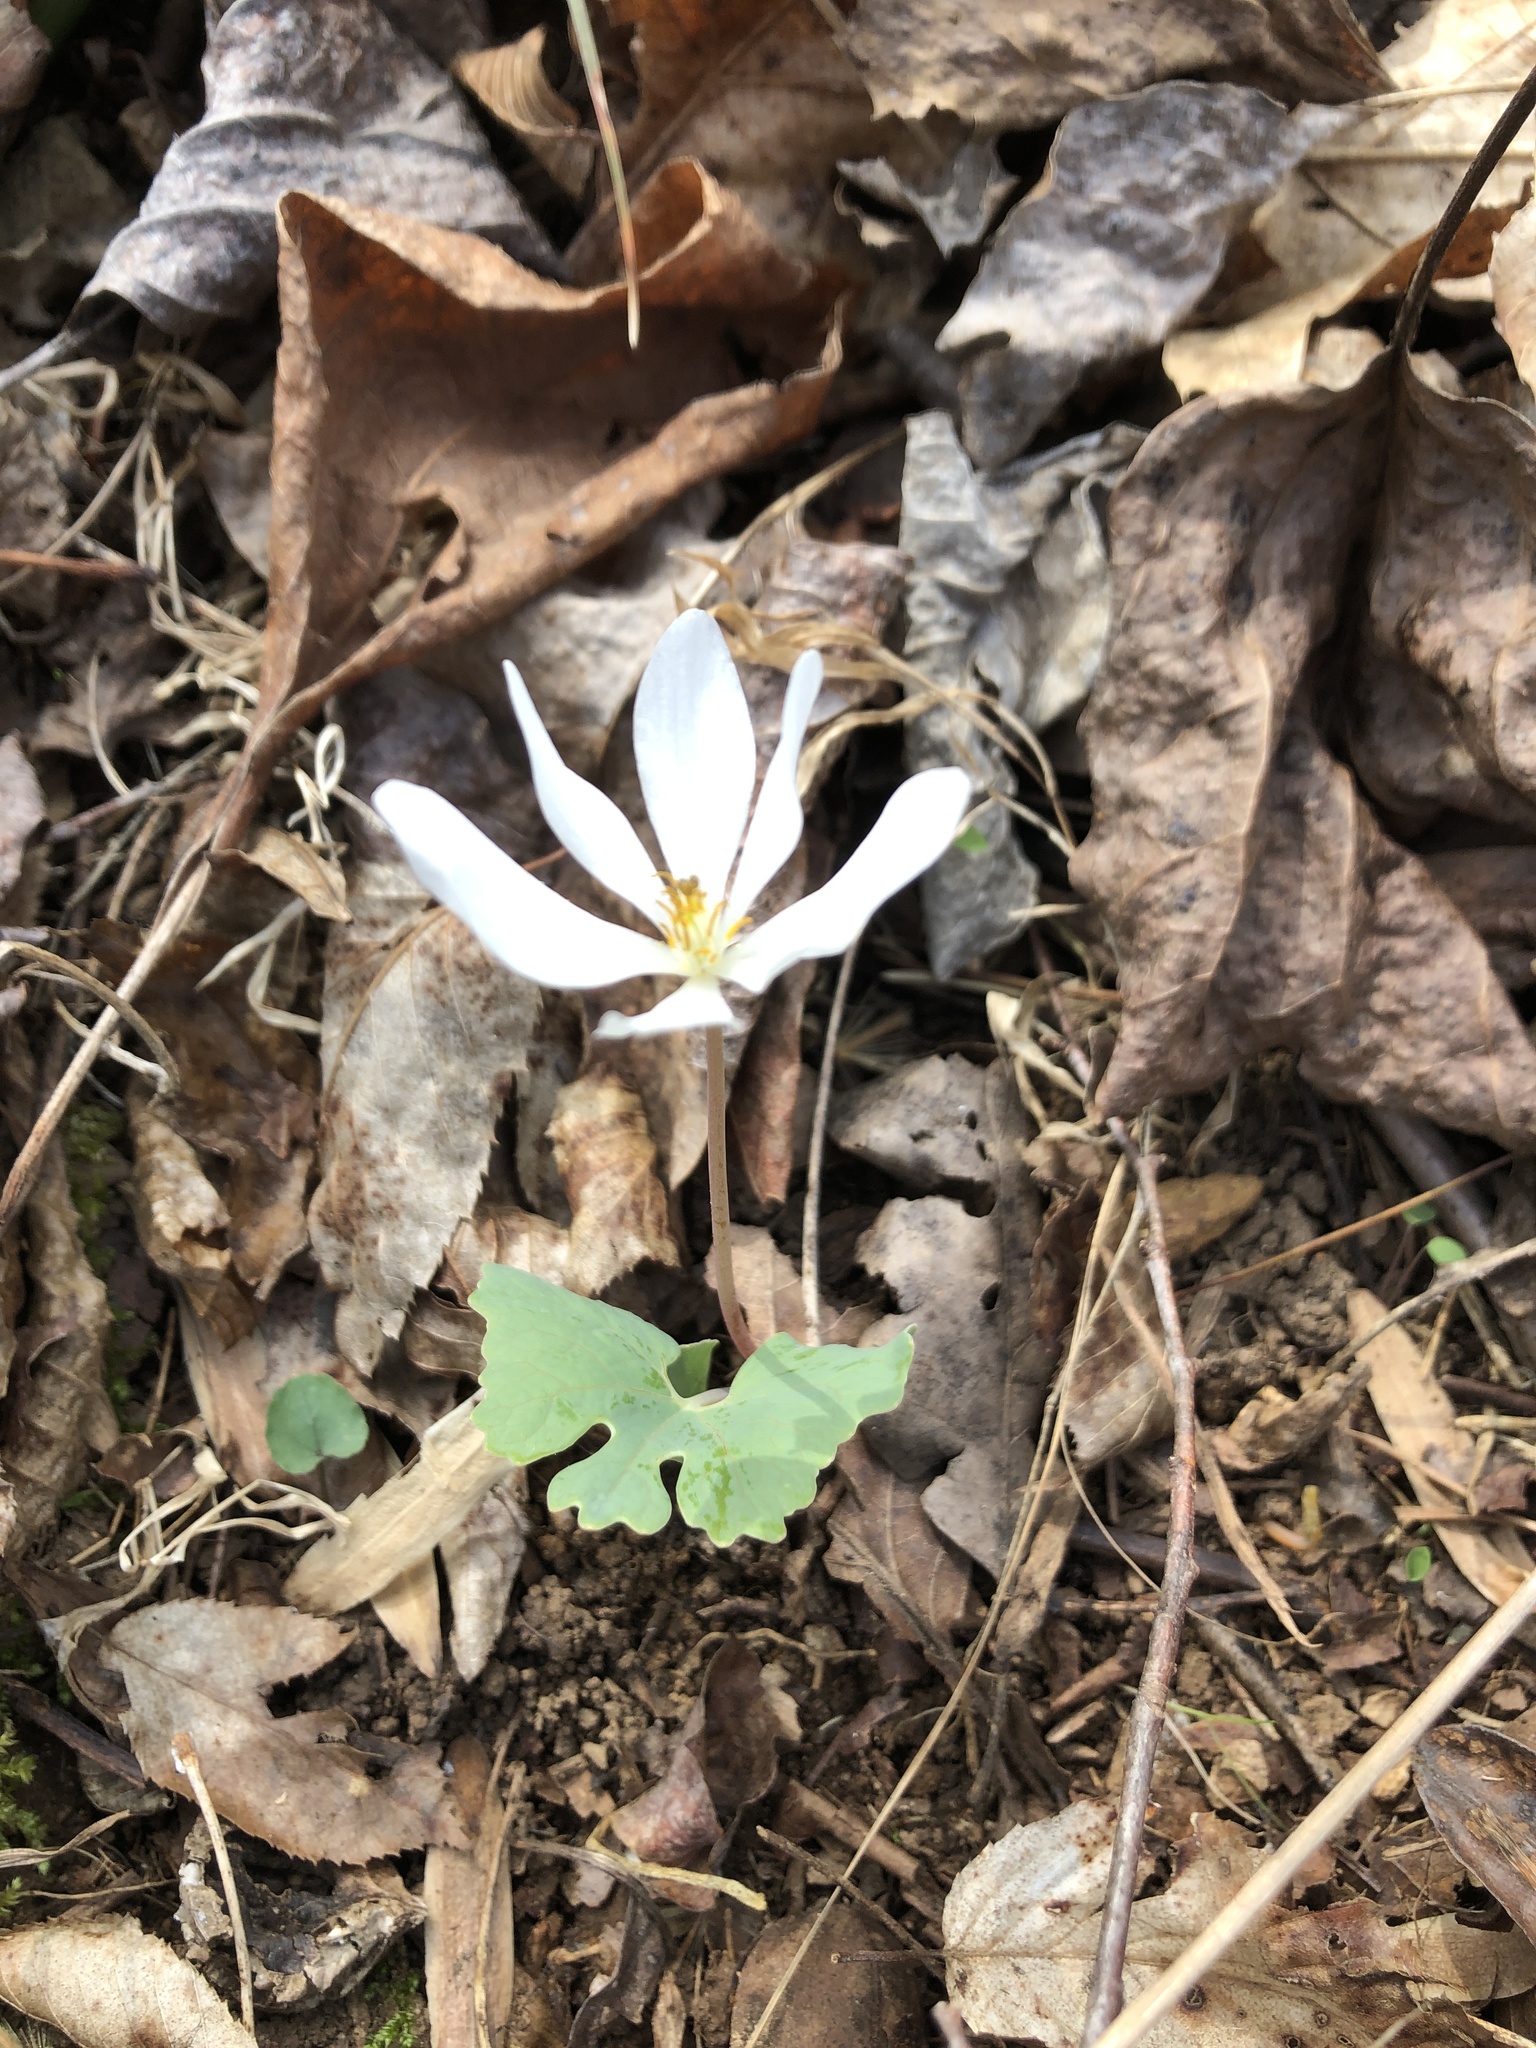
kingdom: Plantae
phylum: Tracheophyta
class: Magnoliopsida
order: Ranunculales
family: Papaveraceae
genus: Sanguinaria
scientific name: Sanguinaria canadensis
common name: Bloodroot
